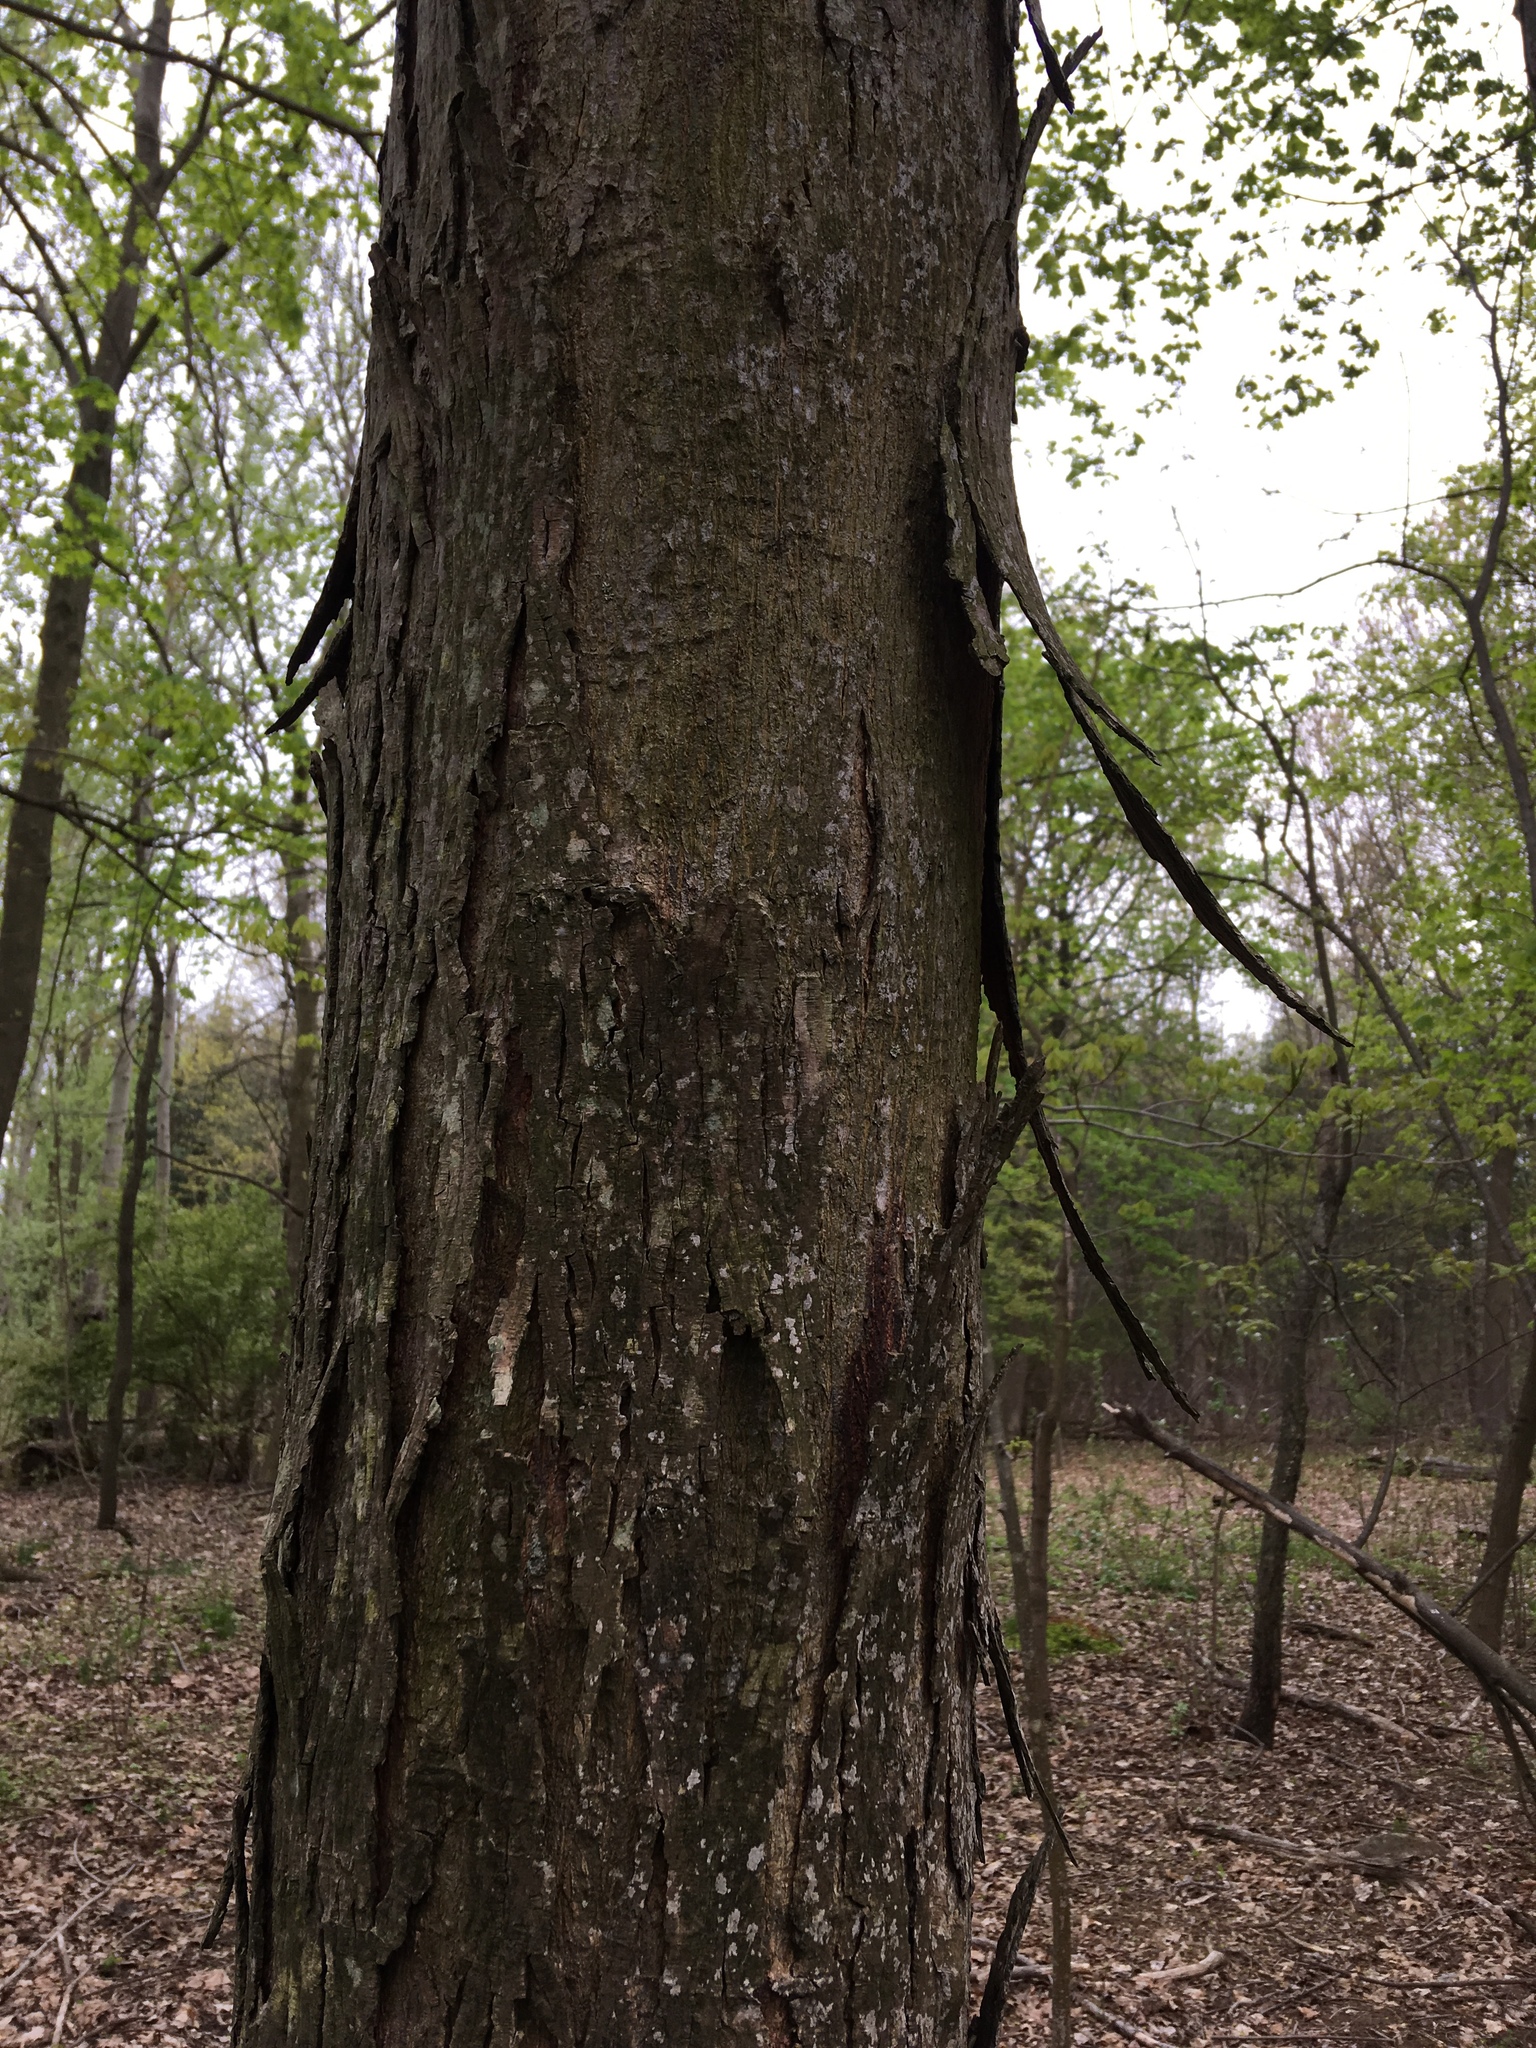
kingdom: Plantae
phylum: Tracheophyta
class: Magnoliopsida
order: Fagales
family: Juglandaceae
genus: Carya
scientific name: Carya ovata
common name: Shagbark hickory
